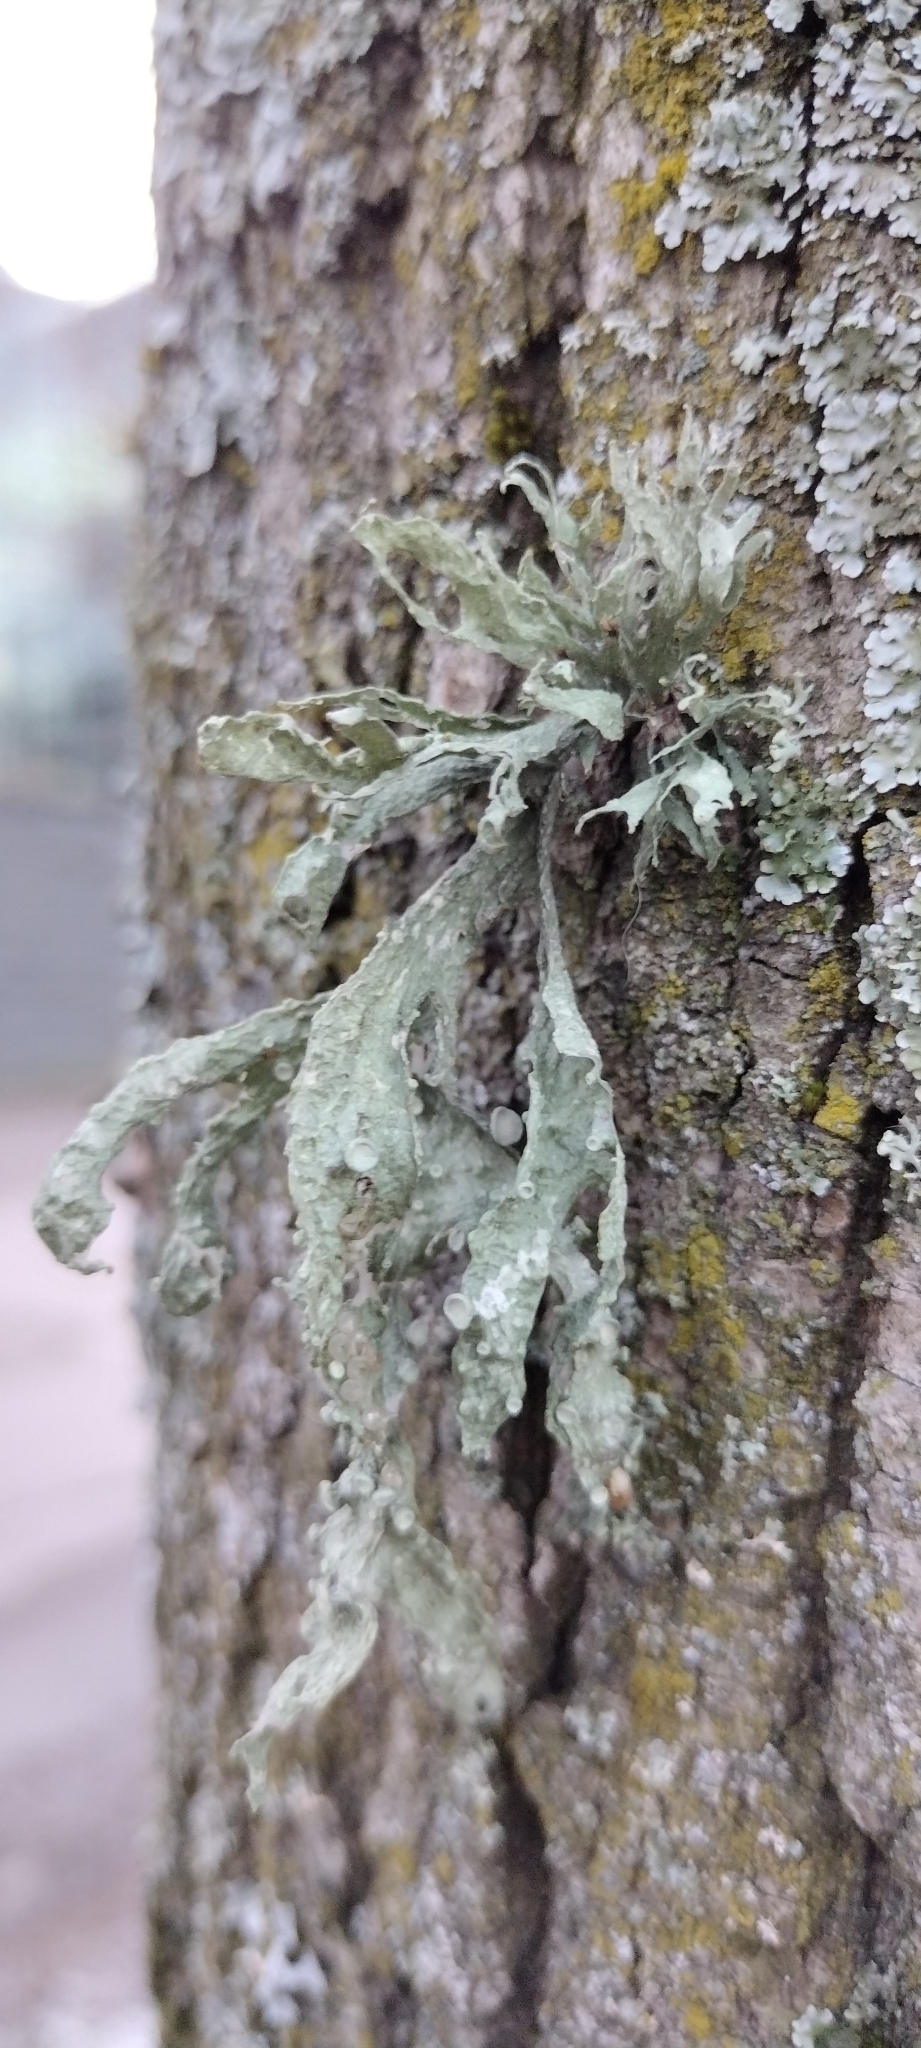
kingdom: Fungi
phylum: Ascomycota
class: Lecanoromycetes
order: Lecanorales
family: Ramalinaceae
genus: Ramalina
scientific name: Ramalina fraxinea
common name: Cartilage lichen
